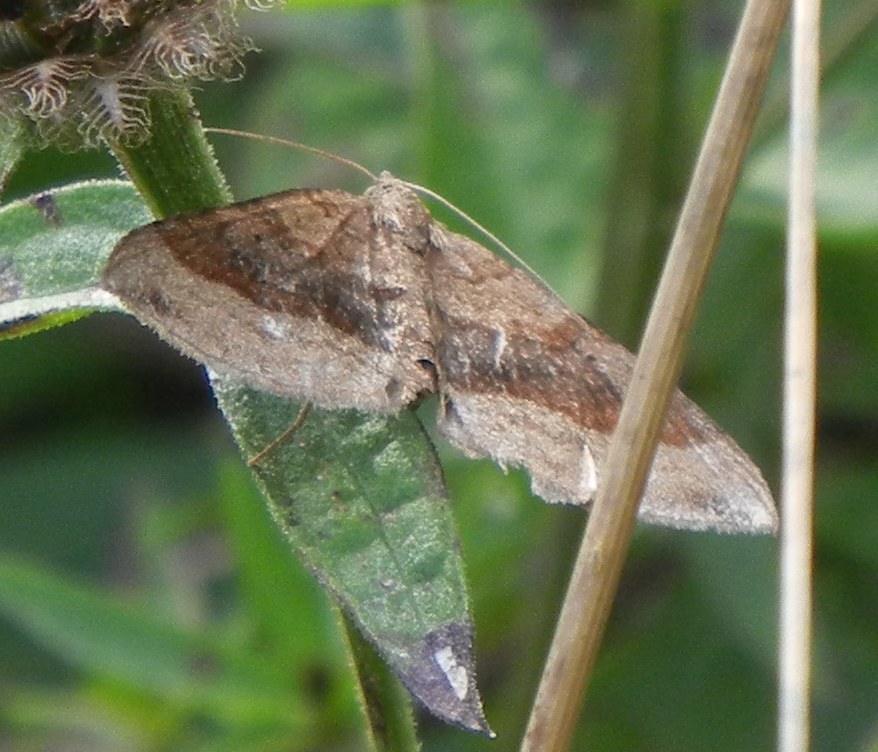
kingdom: Animalia
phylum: Arthropoda
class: Insecta
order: Lepidoptera
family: Geometridae
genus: Scotopteryx
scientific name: Scotopteryx chenopodiata
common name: Shaded broad-bar
